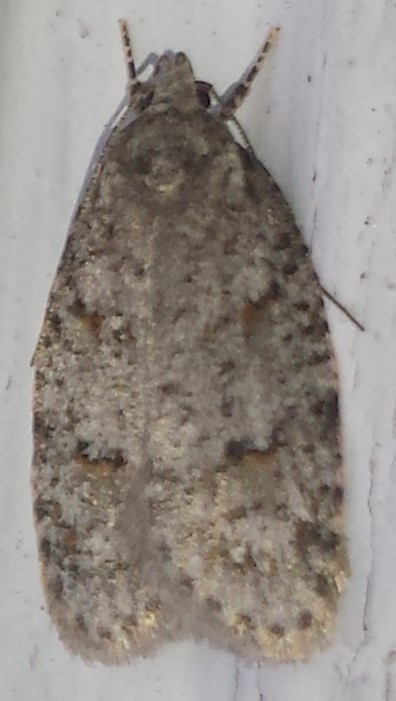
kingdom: Animalia
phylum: Arthropoda
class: Insecta
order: Lepidoptera
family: Depressariidae
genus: Bibarrambla
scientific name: Bibarrambla allenella
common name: Bog bibarrambla moth
